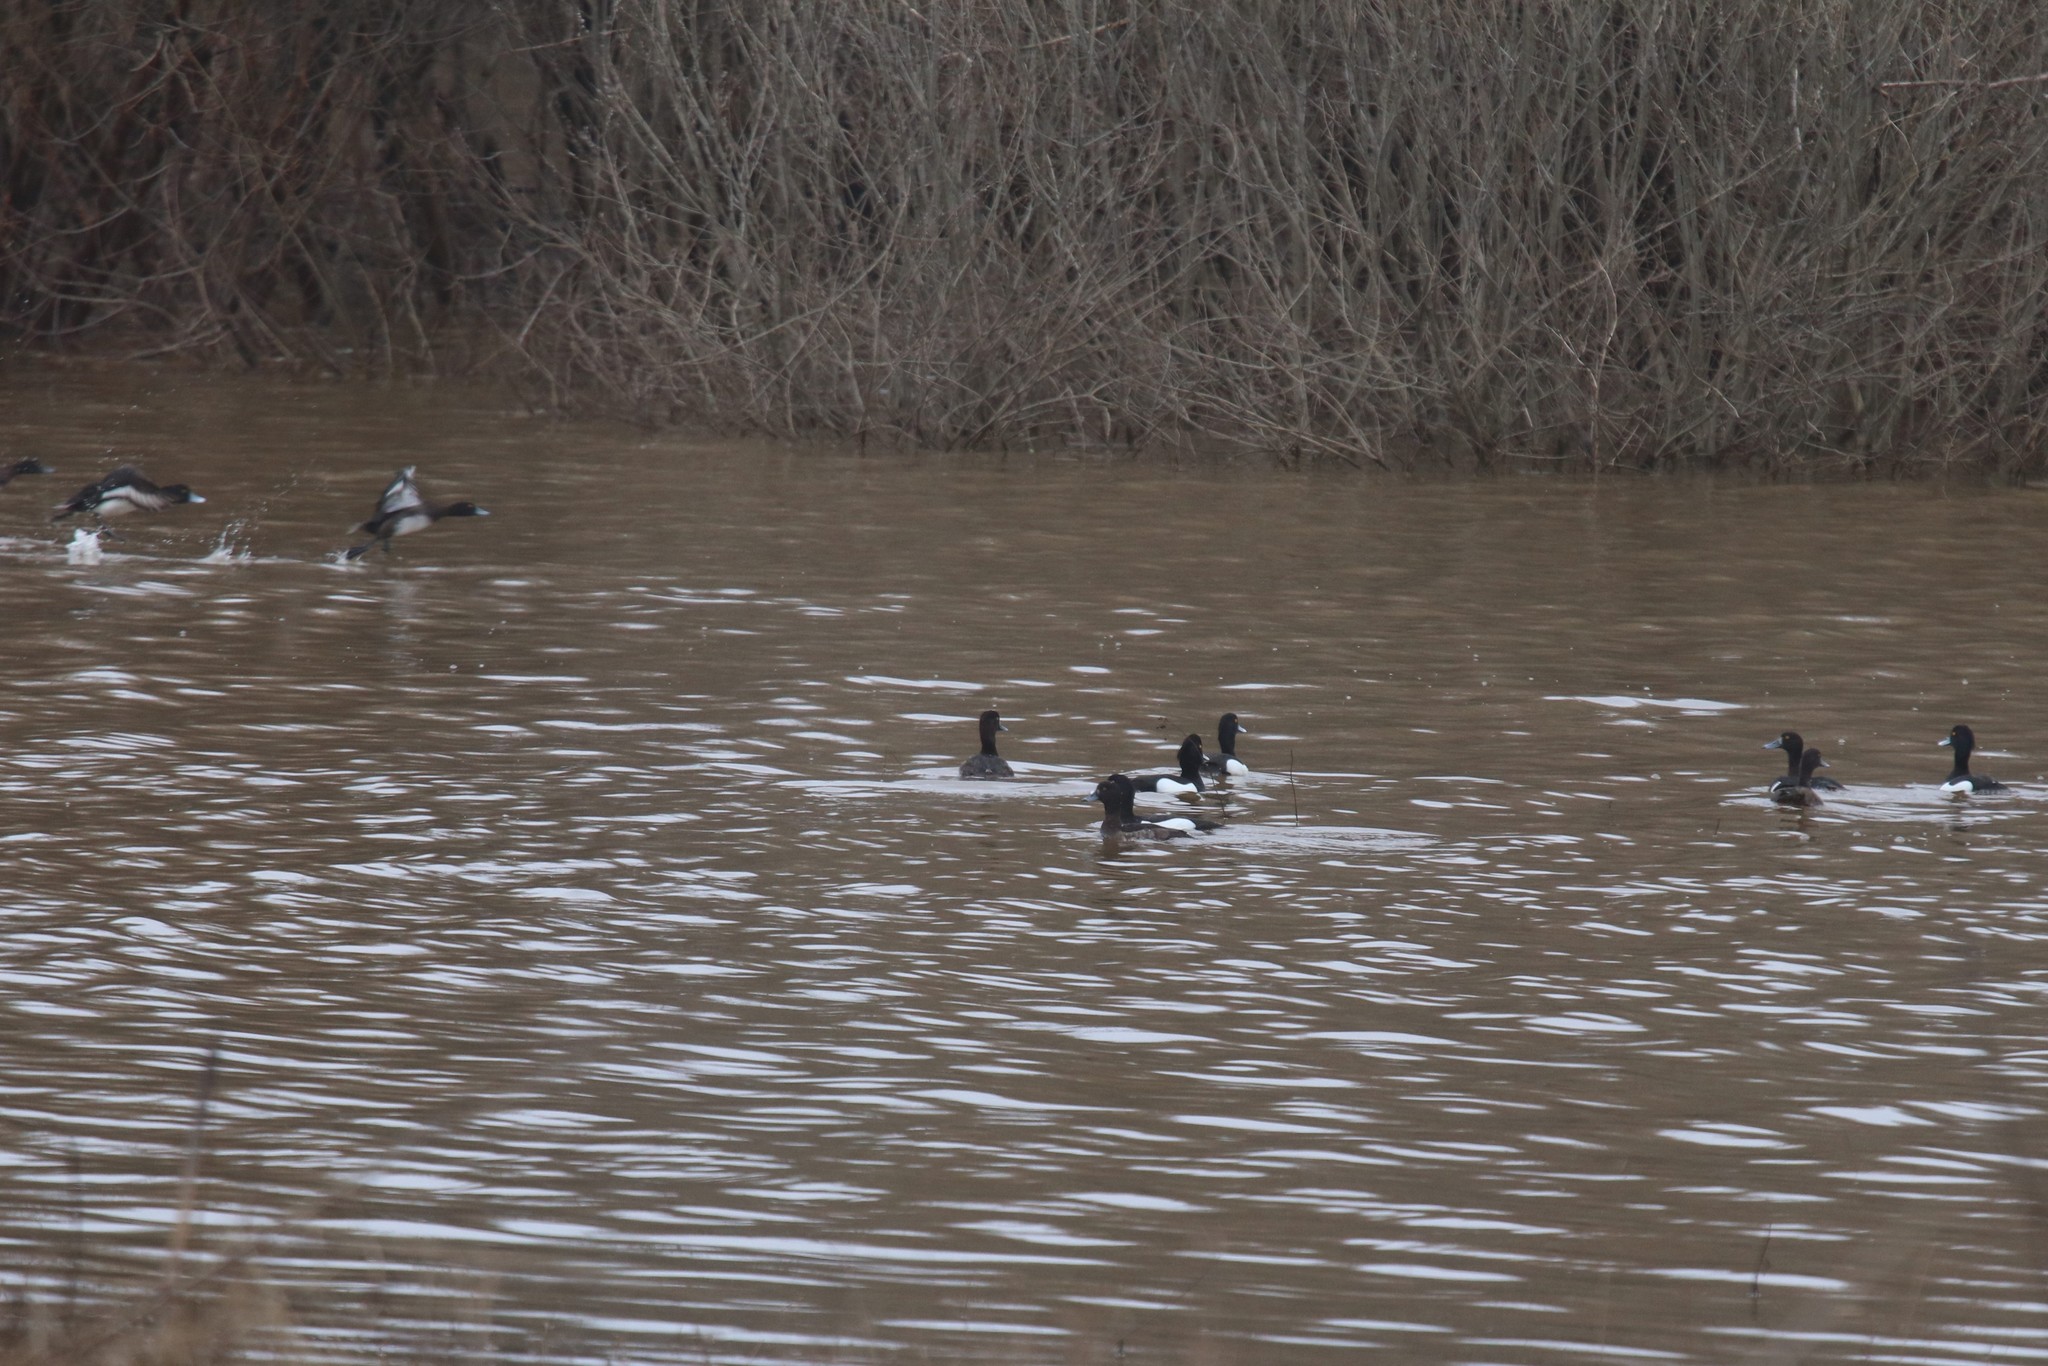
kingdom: Animalia
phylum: Chordata
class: Aves
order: Anseriformes
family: Anatidae
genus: Aythya
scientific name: Aythya fuligula
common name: Tufted duck
